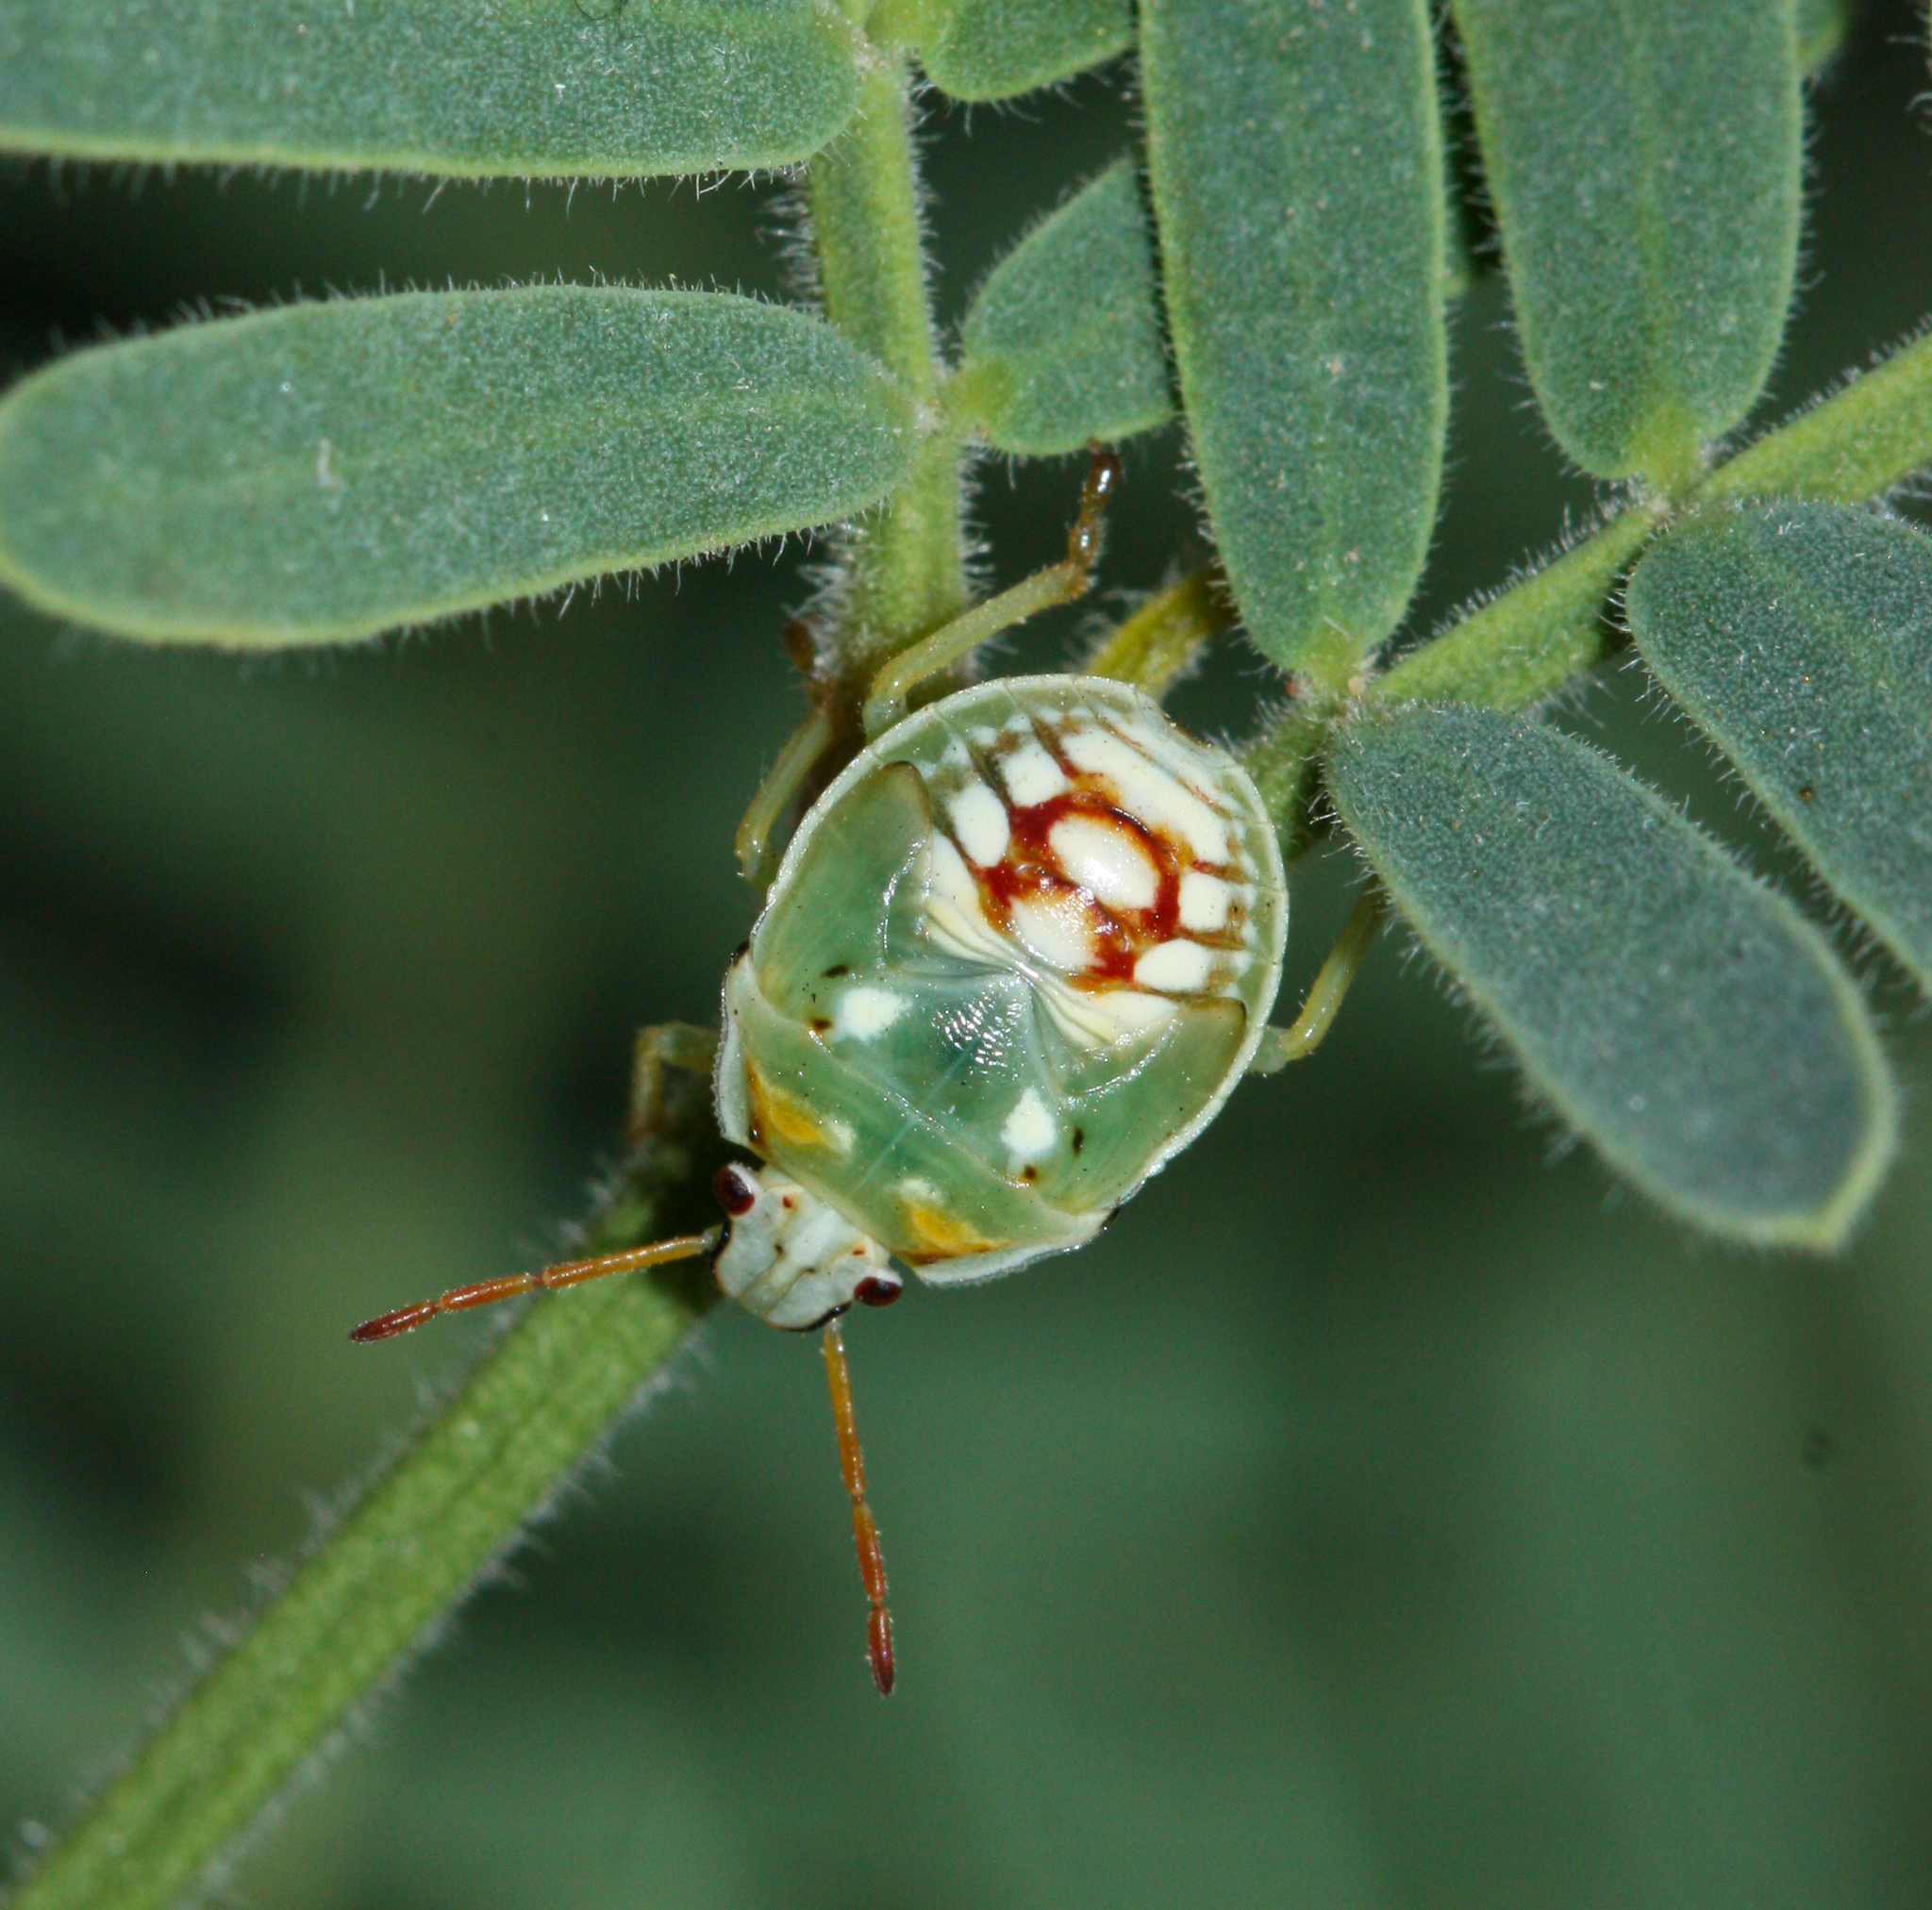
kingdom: Animalia
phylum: Arthropoda
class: Insecta
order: Hemiptera
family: Pentatomidae
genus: Tylospilus
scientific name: Tylospilus acutissimus
